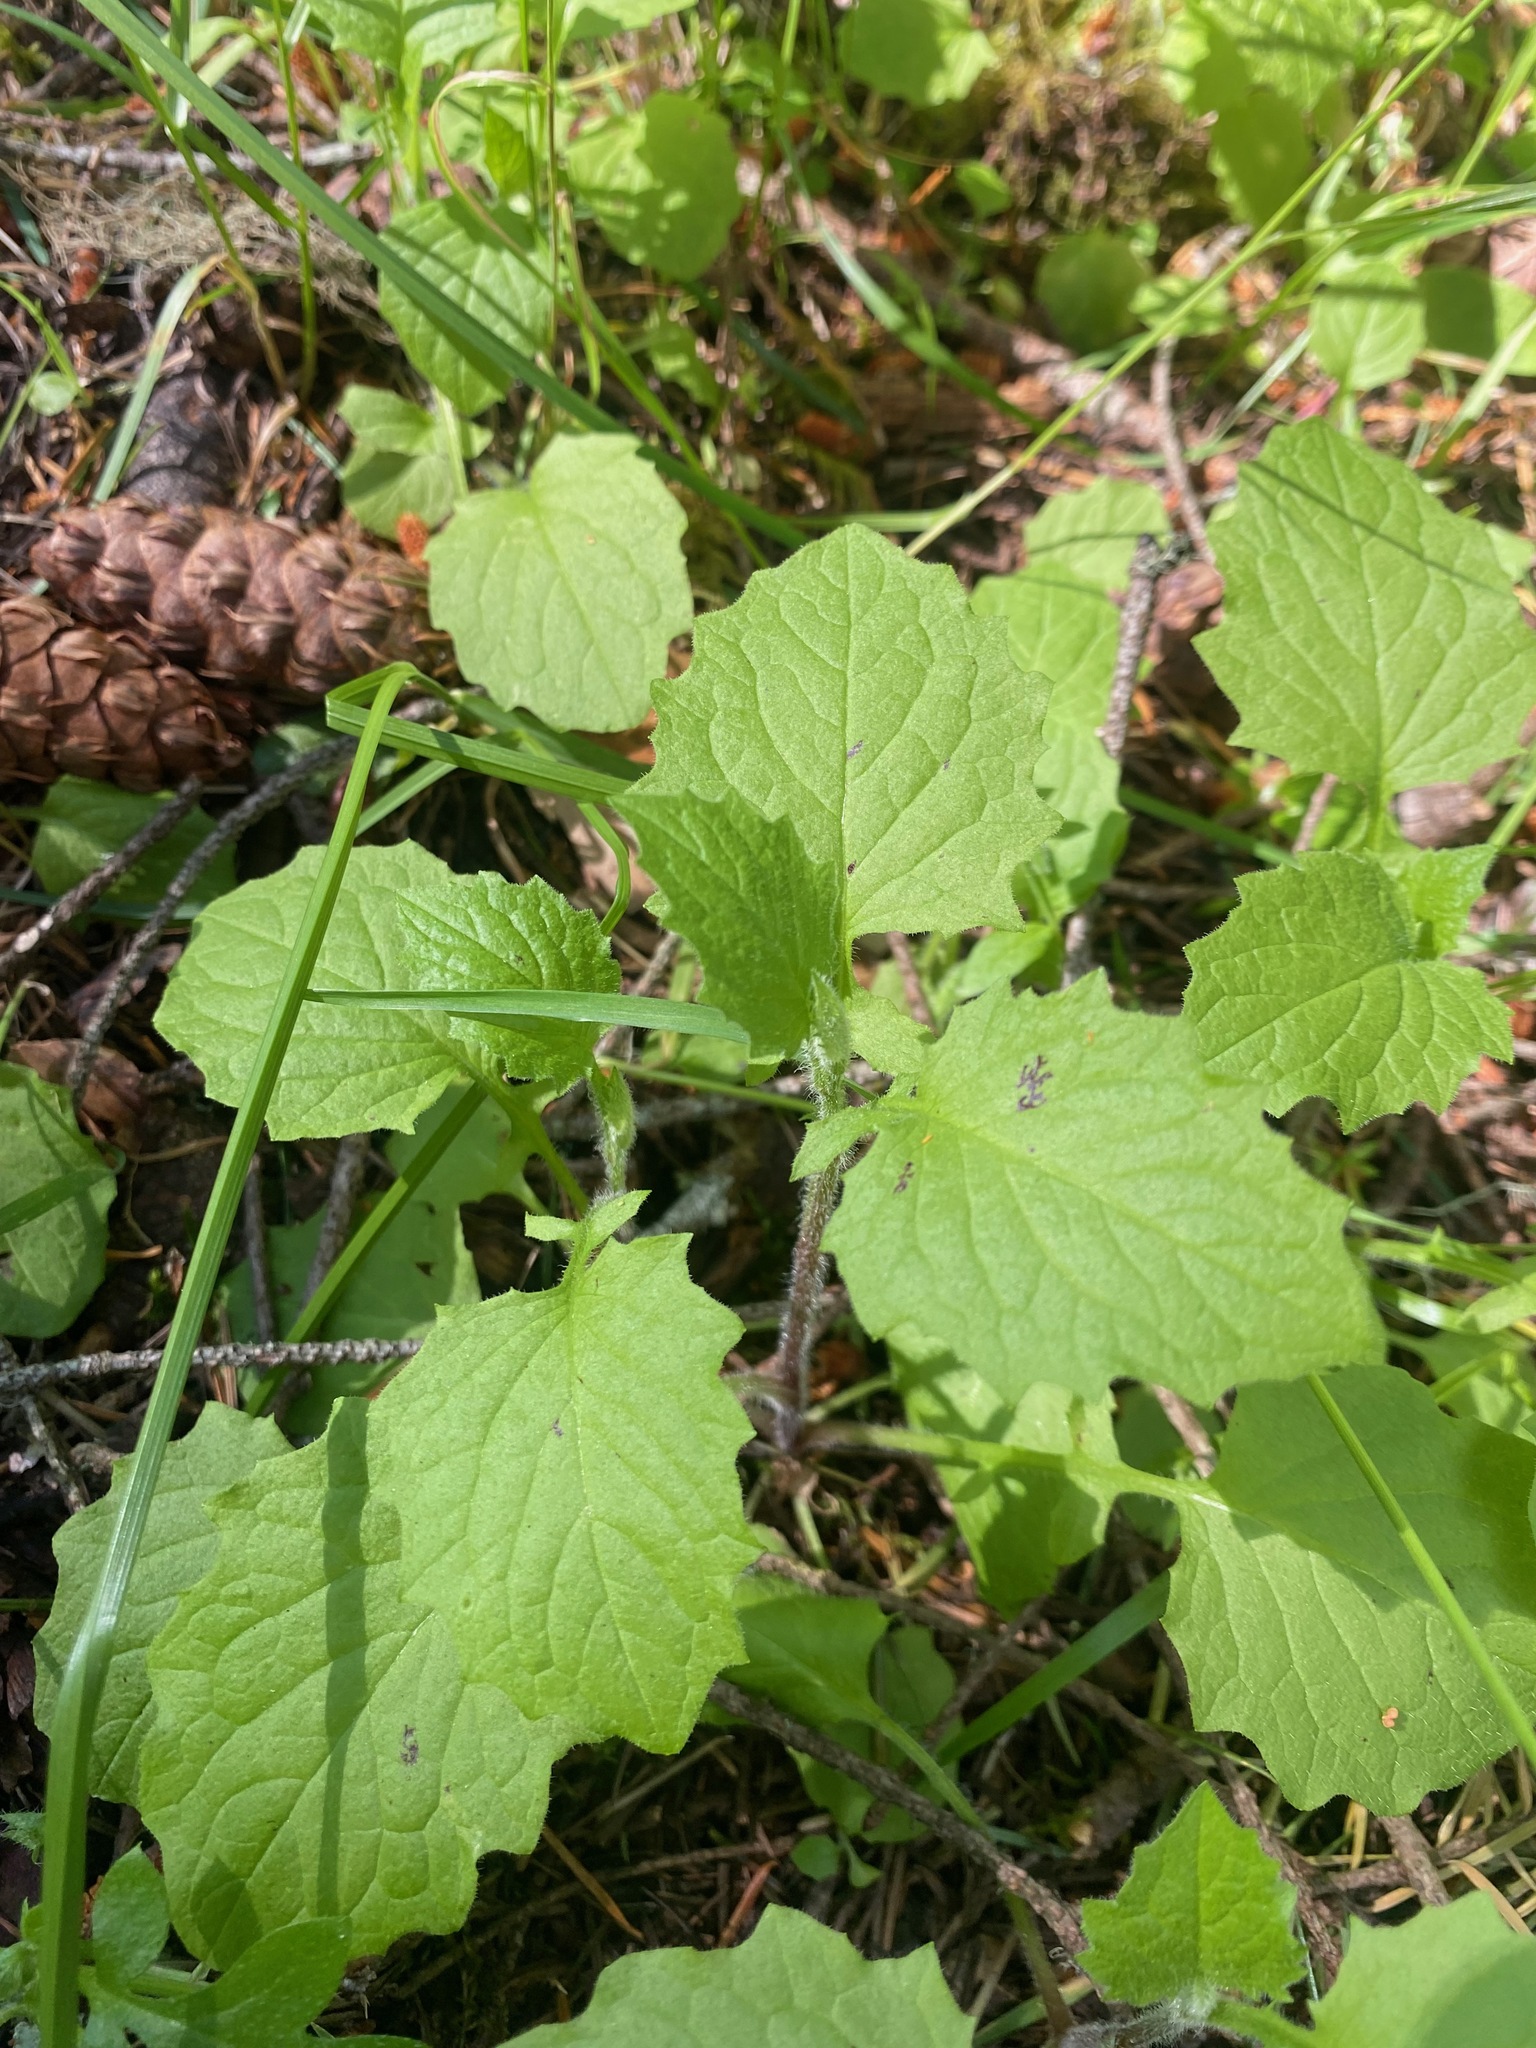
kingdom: Plantae
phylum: Tracheophyta
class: Magnoliopsida
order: Asterales
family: Asteraceae
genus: Lapsana
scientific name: Lapsana communis
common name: Nipplewort
